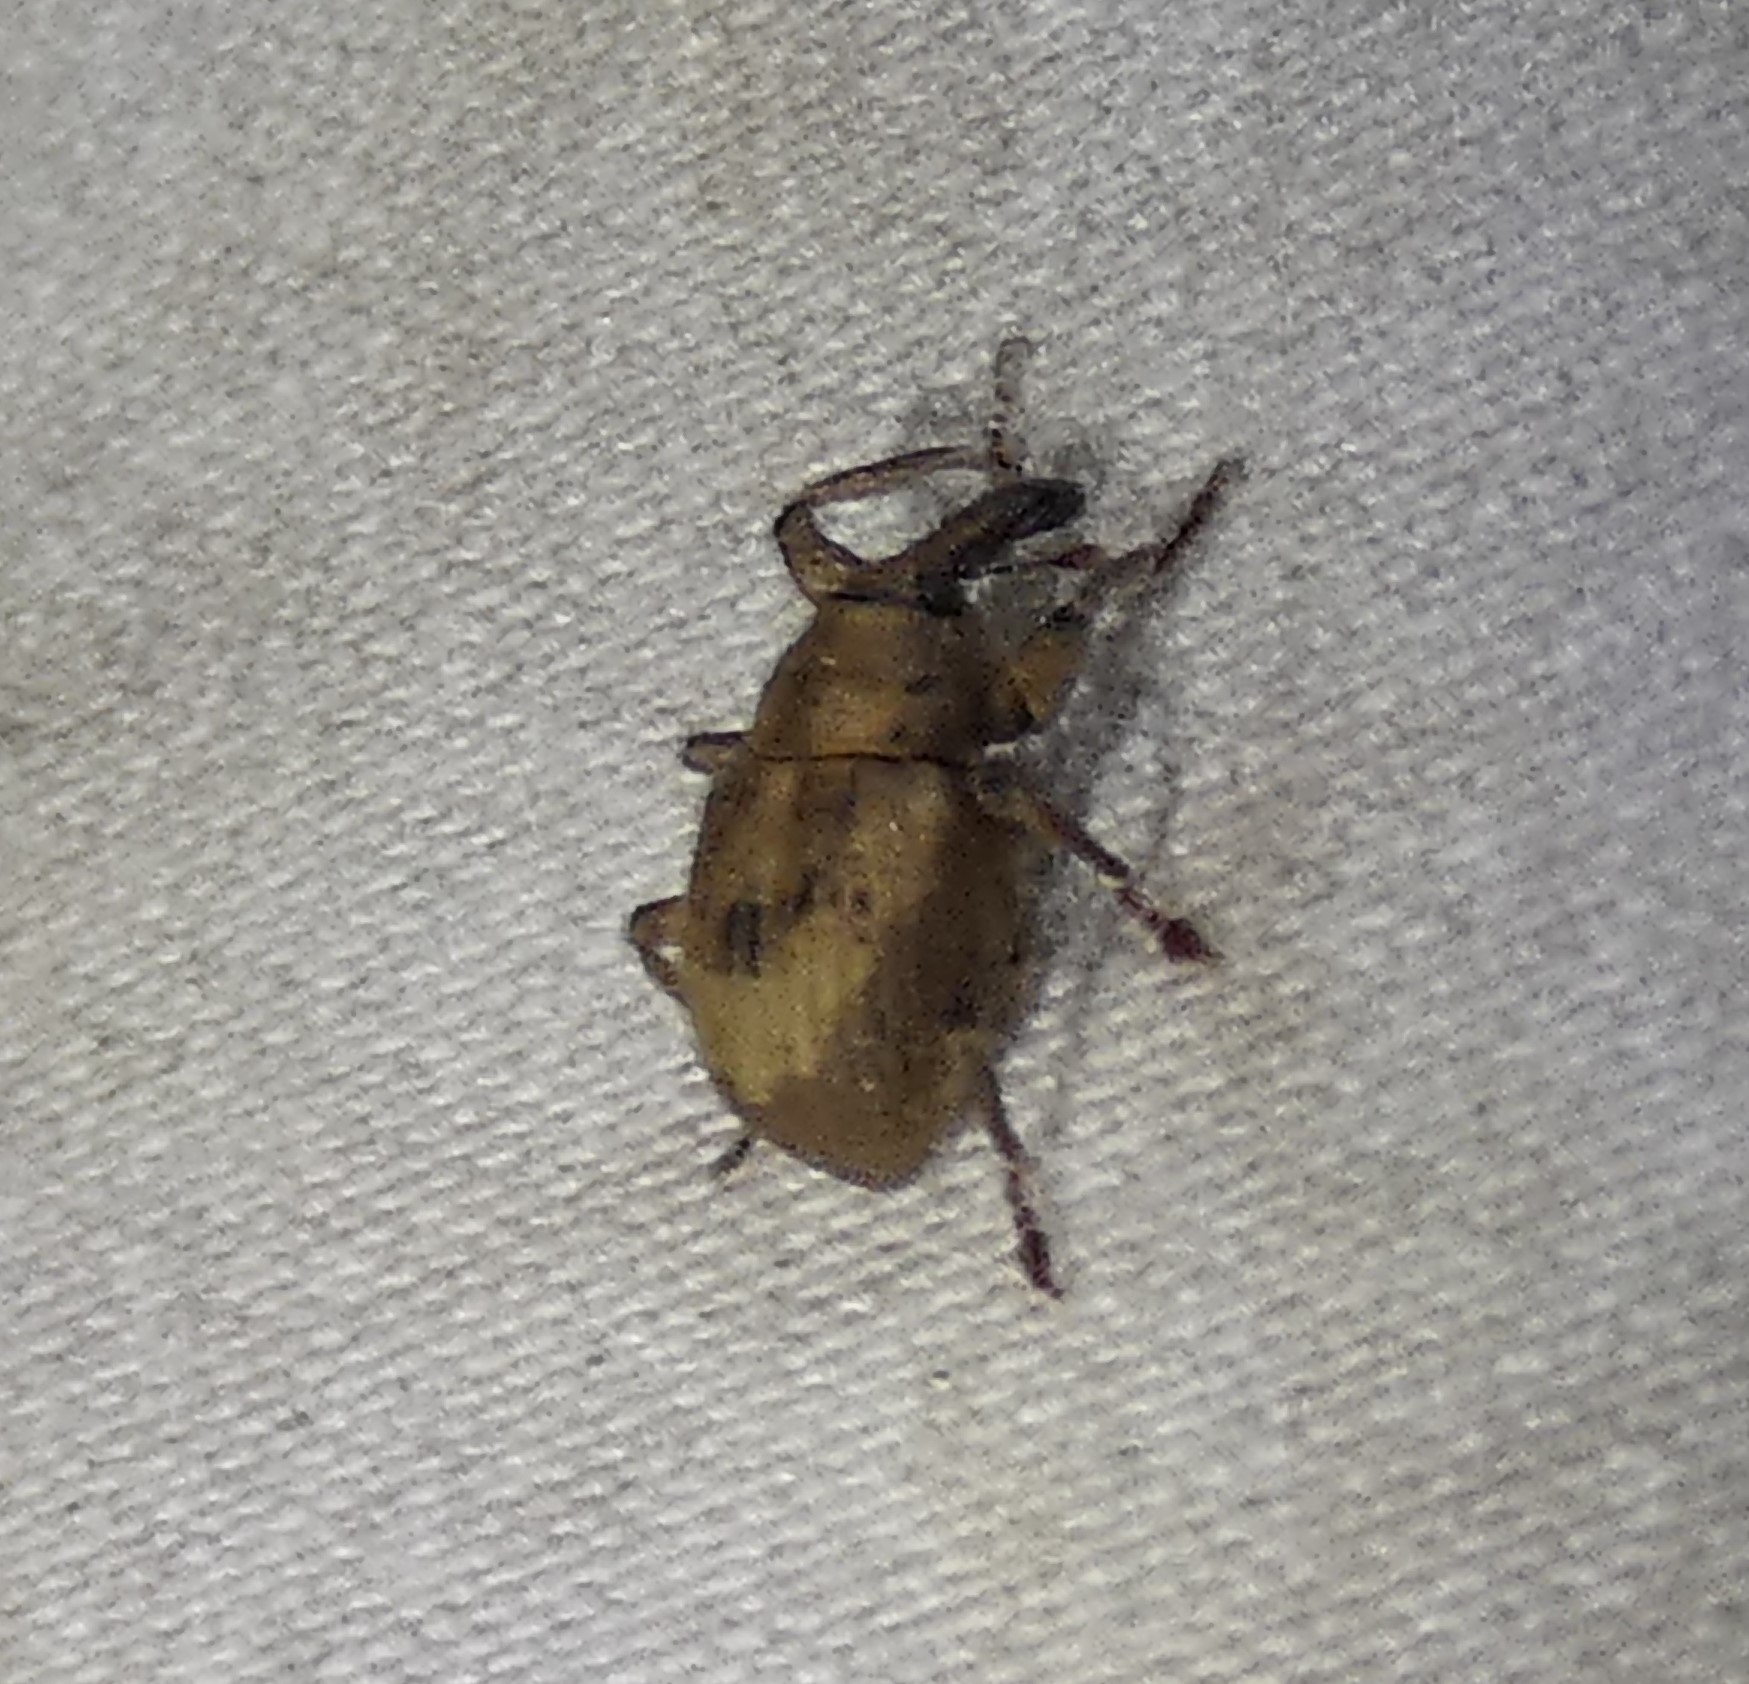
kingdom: Animalia
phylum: Arthropoda
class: Insecta
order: Coleoptera
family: Brachyceridae
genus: Neochetina
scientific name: Neochetina bruchi
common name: Beetle
